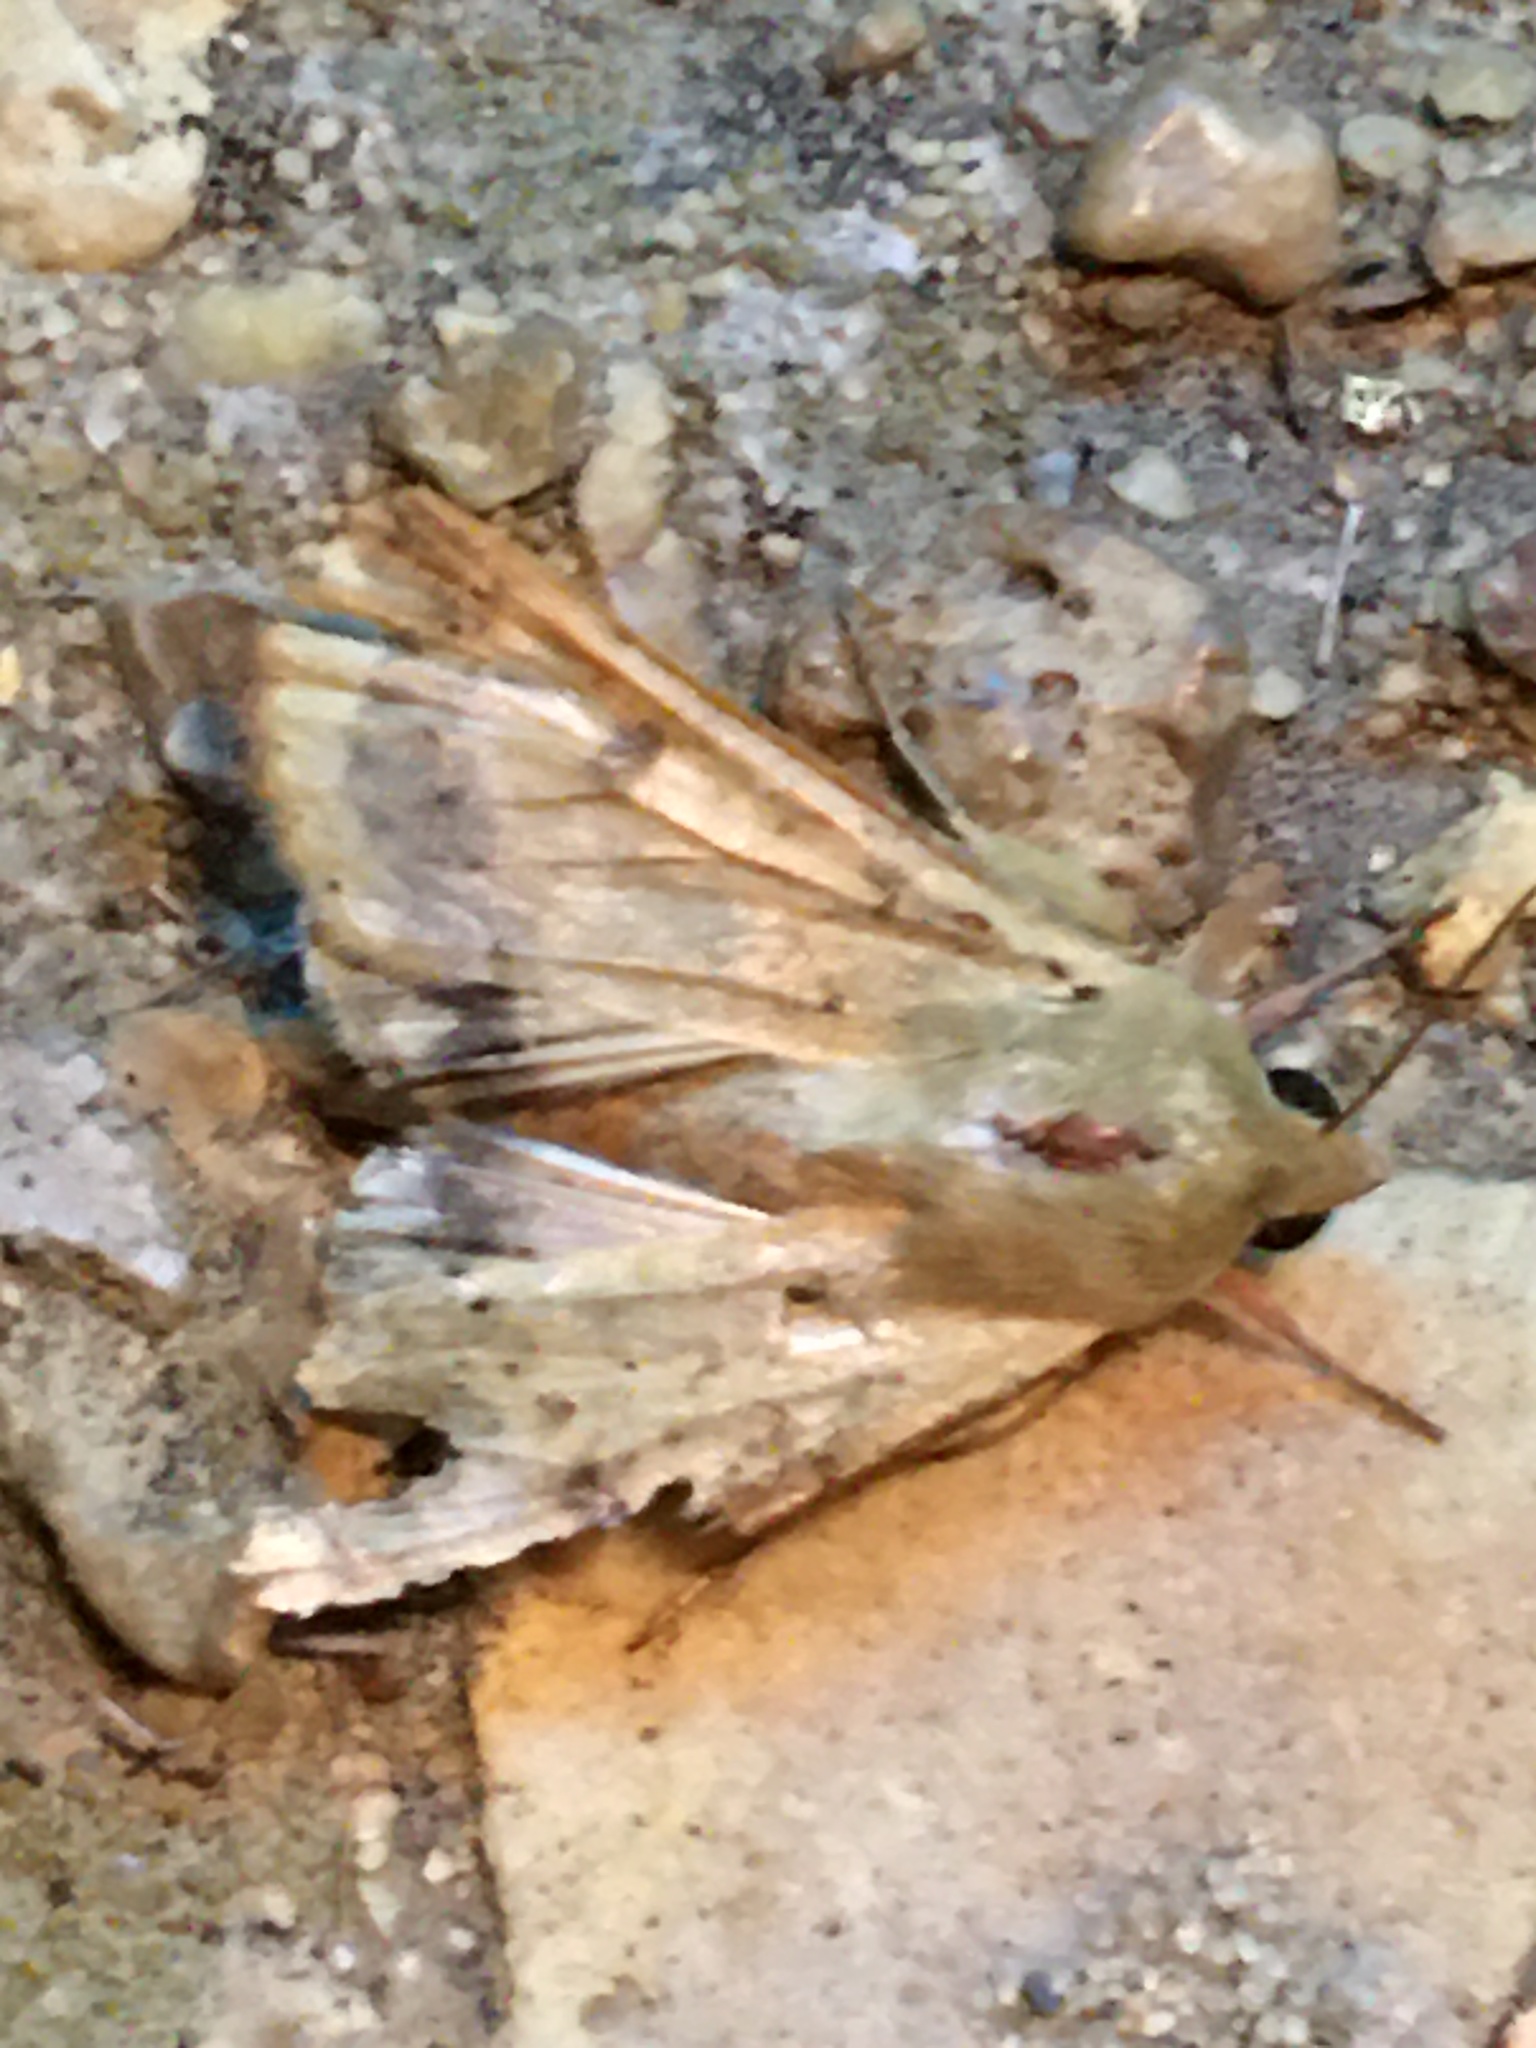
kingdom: Animalia
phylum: Arthropoda
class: Insecta
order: Lepidoptera
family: Noctuidae
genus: Helicoverpa
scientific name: Helicoverpa zea
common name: Bollworm
